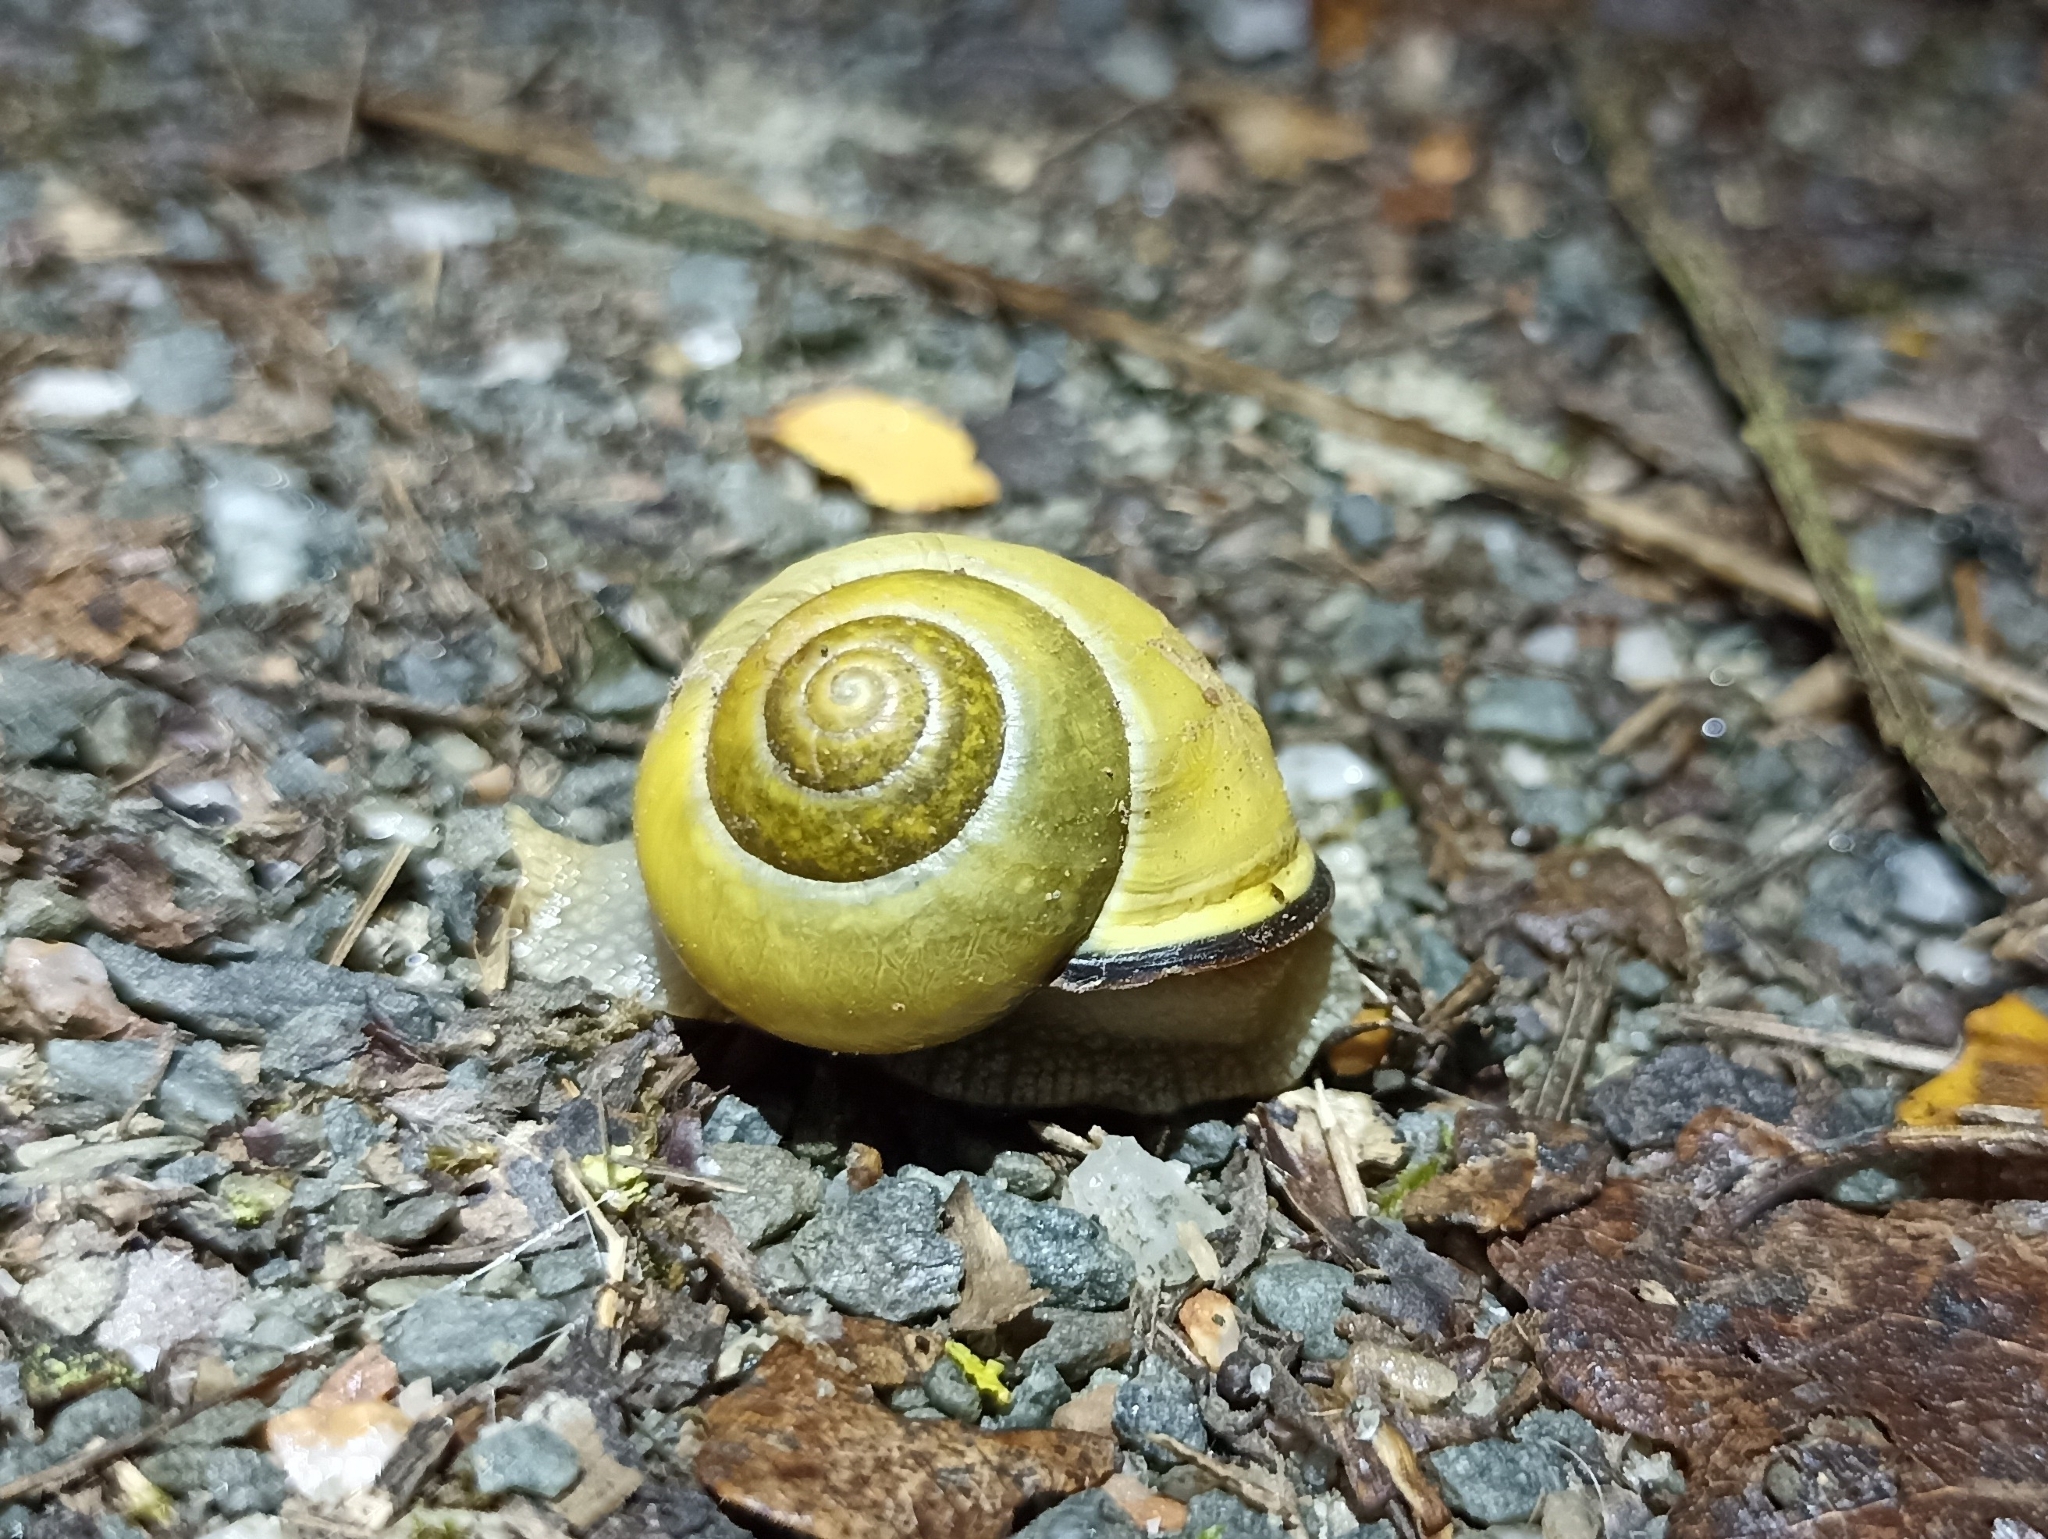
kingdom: Animalia
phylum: Mollusca
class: Gastropoda
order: Stylommatophora
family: Helicidae
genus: Cepaea
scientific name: Cepaea nemoralis
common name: Grovesnail
